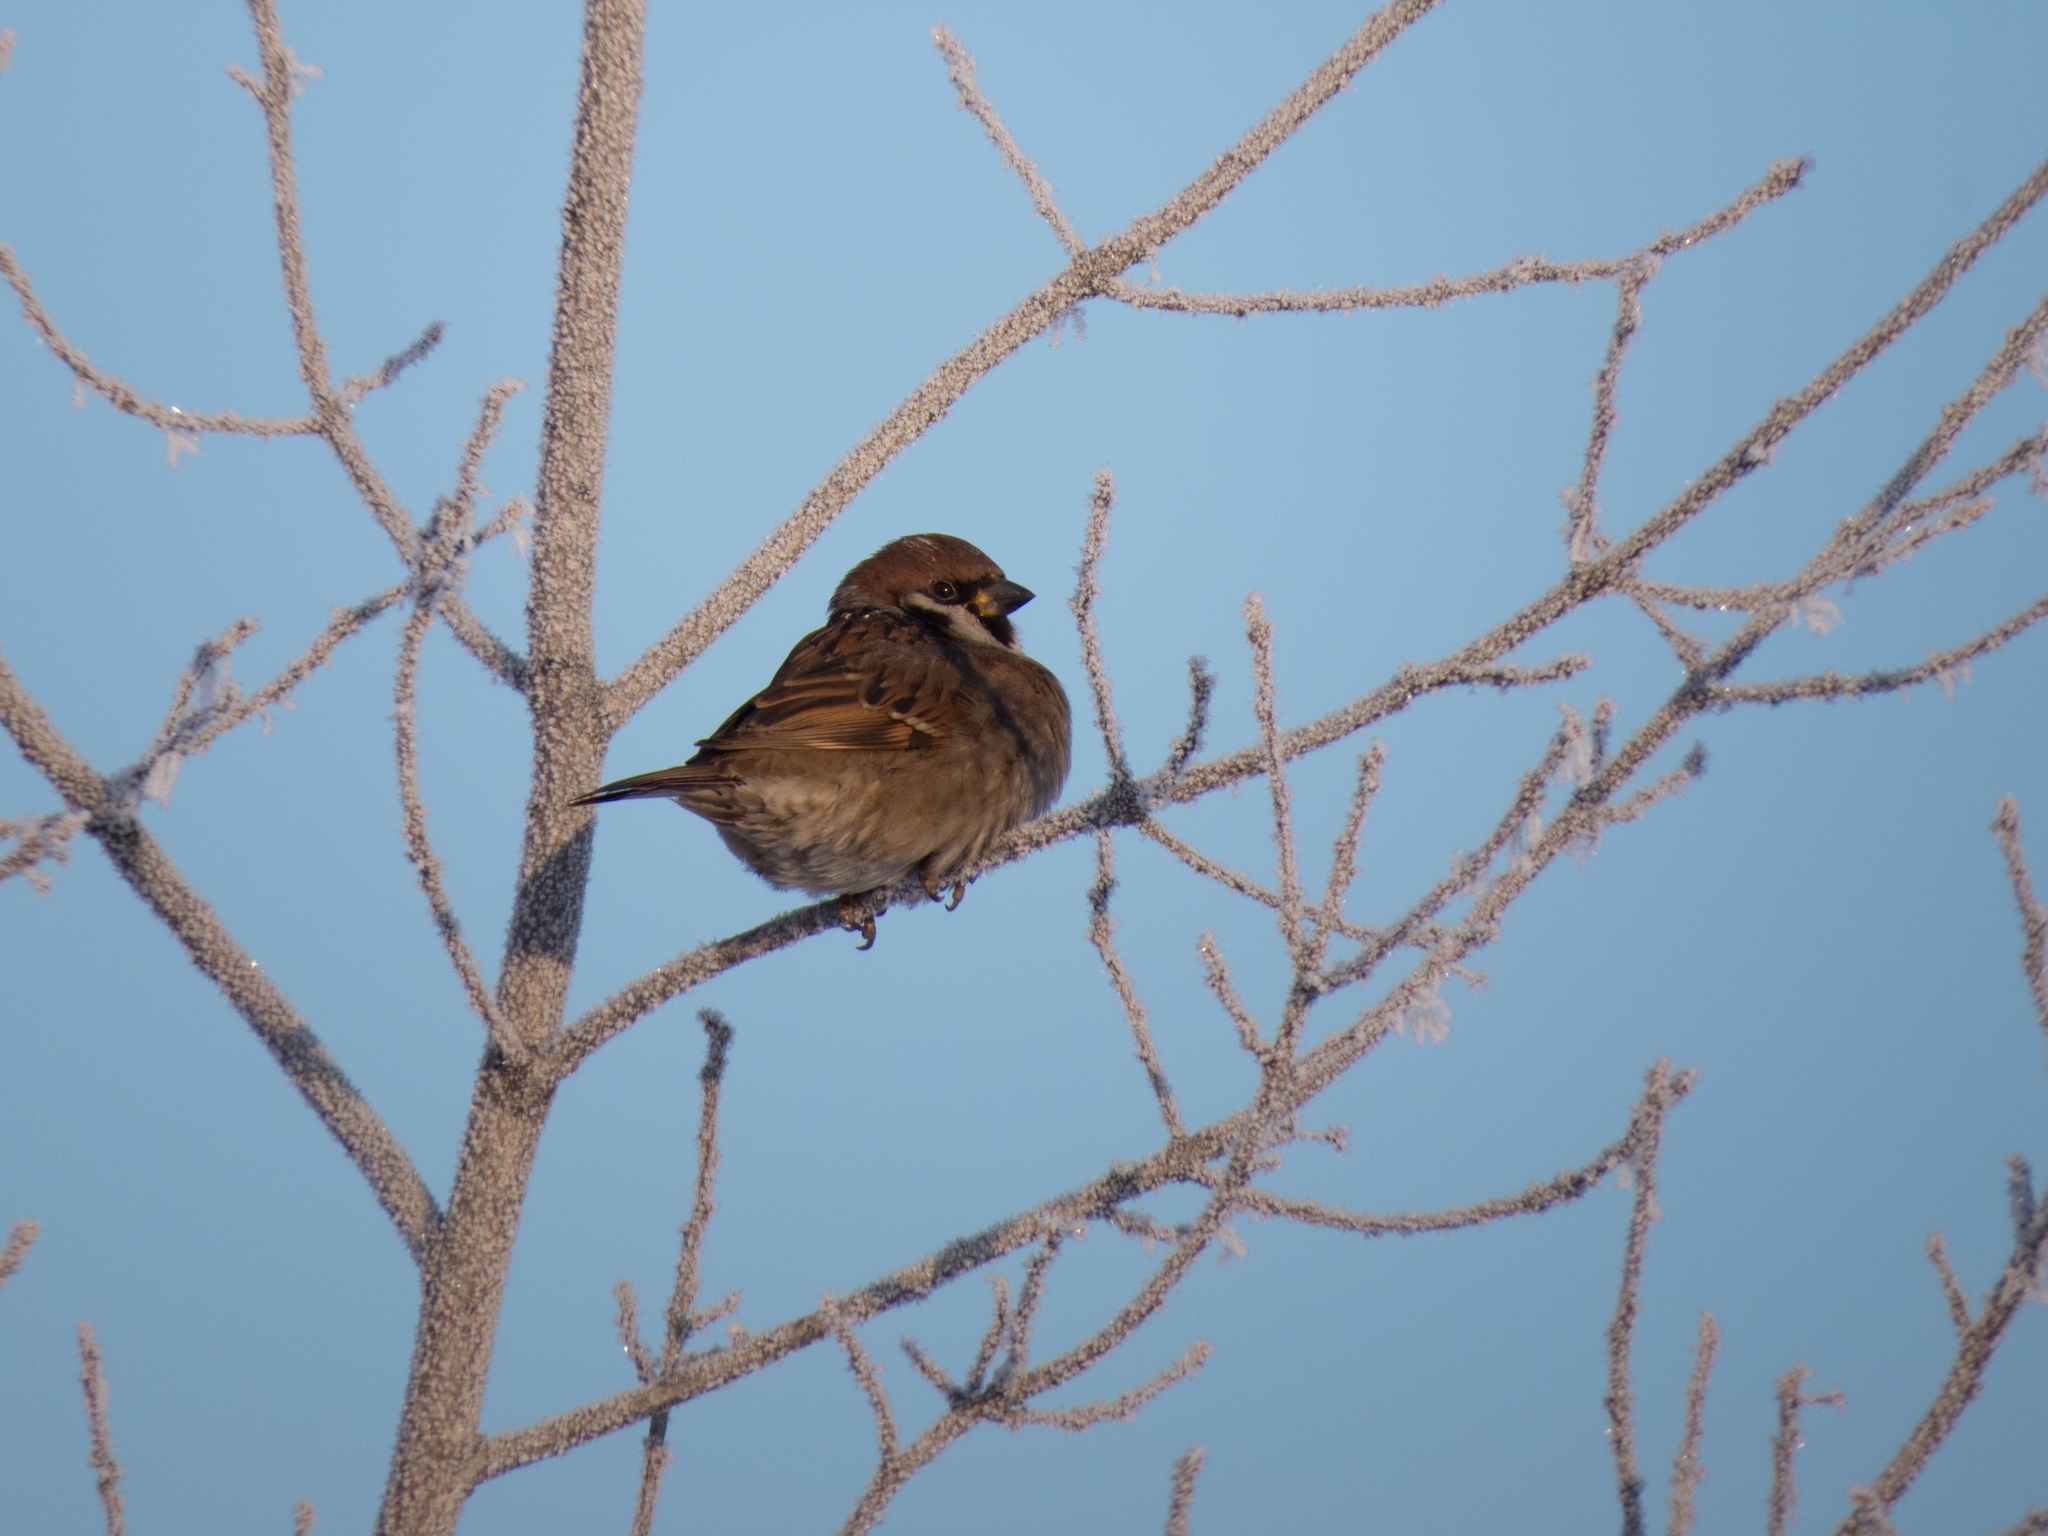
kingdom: Animalia
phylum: Chordata
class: Aves
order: Passeriformes
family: Passeridae
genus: Passer
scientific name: Passer montanus
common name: Eurasian tree sparrow
